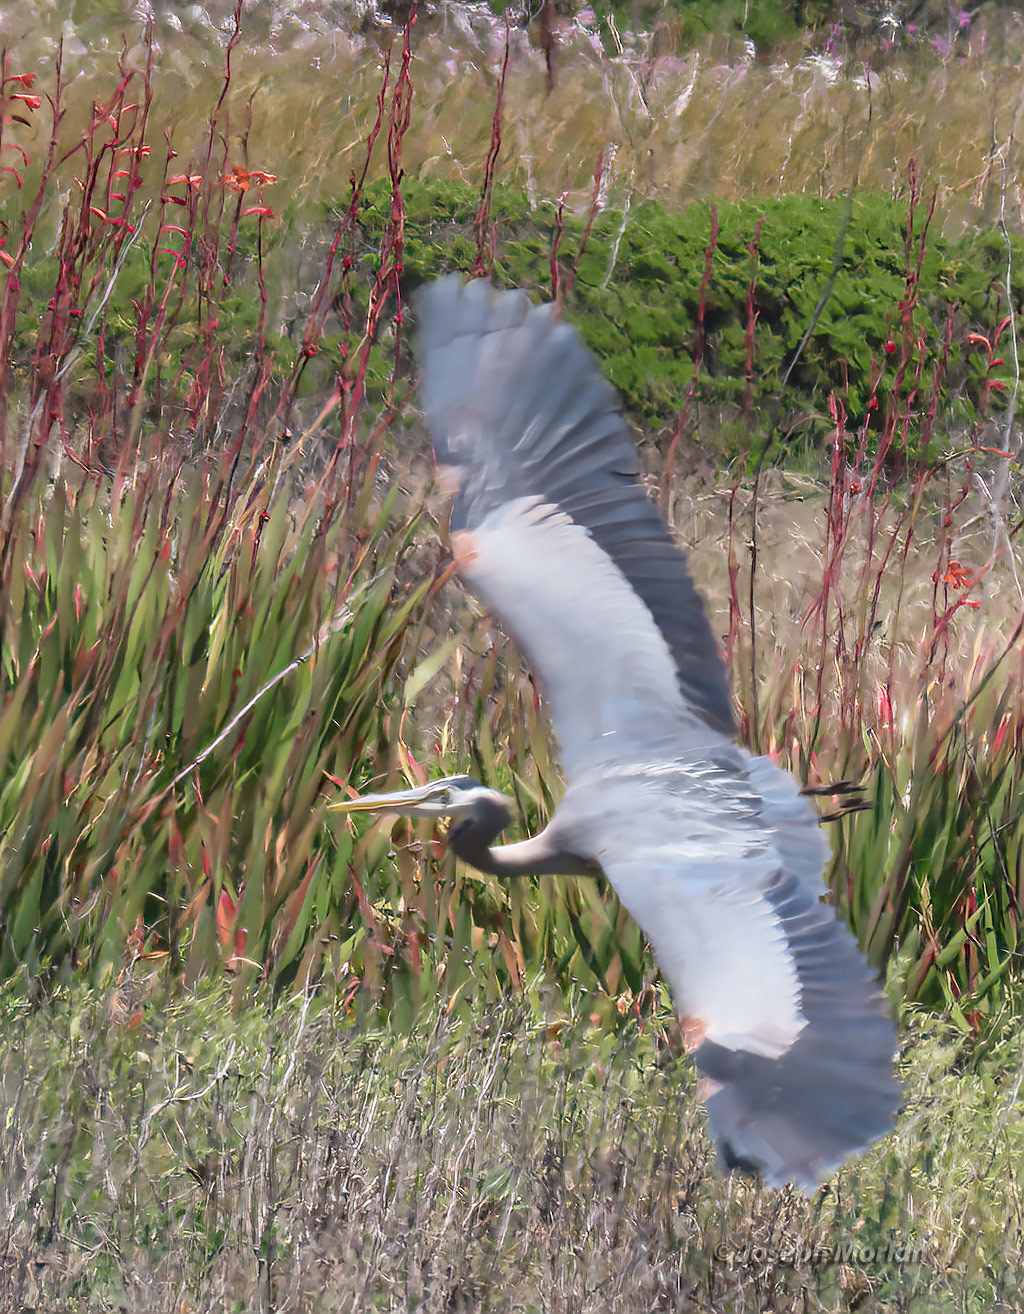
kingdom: Animalia
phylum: Chordata
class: Aves
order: Pelecaniformes
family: Ardeidae
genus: Ardea
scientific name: Ardea herodias
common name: Great blue heron
